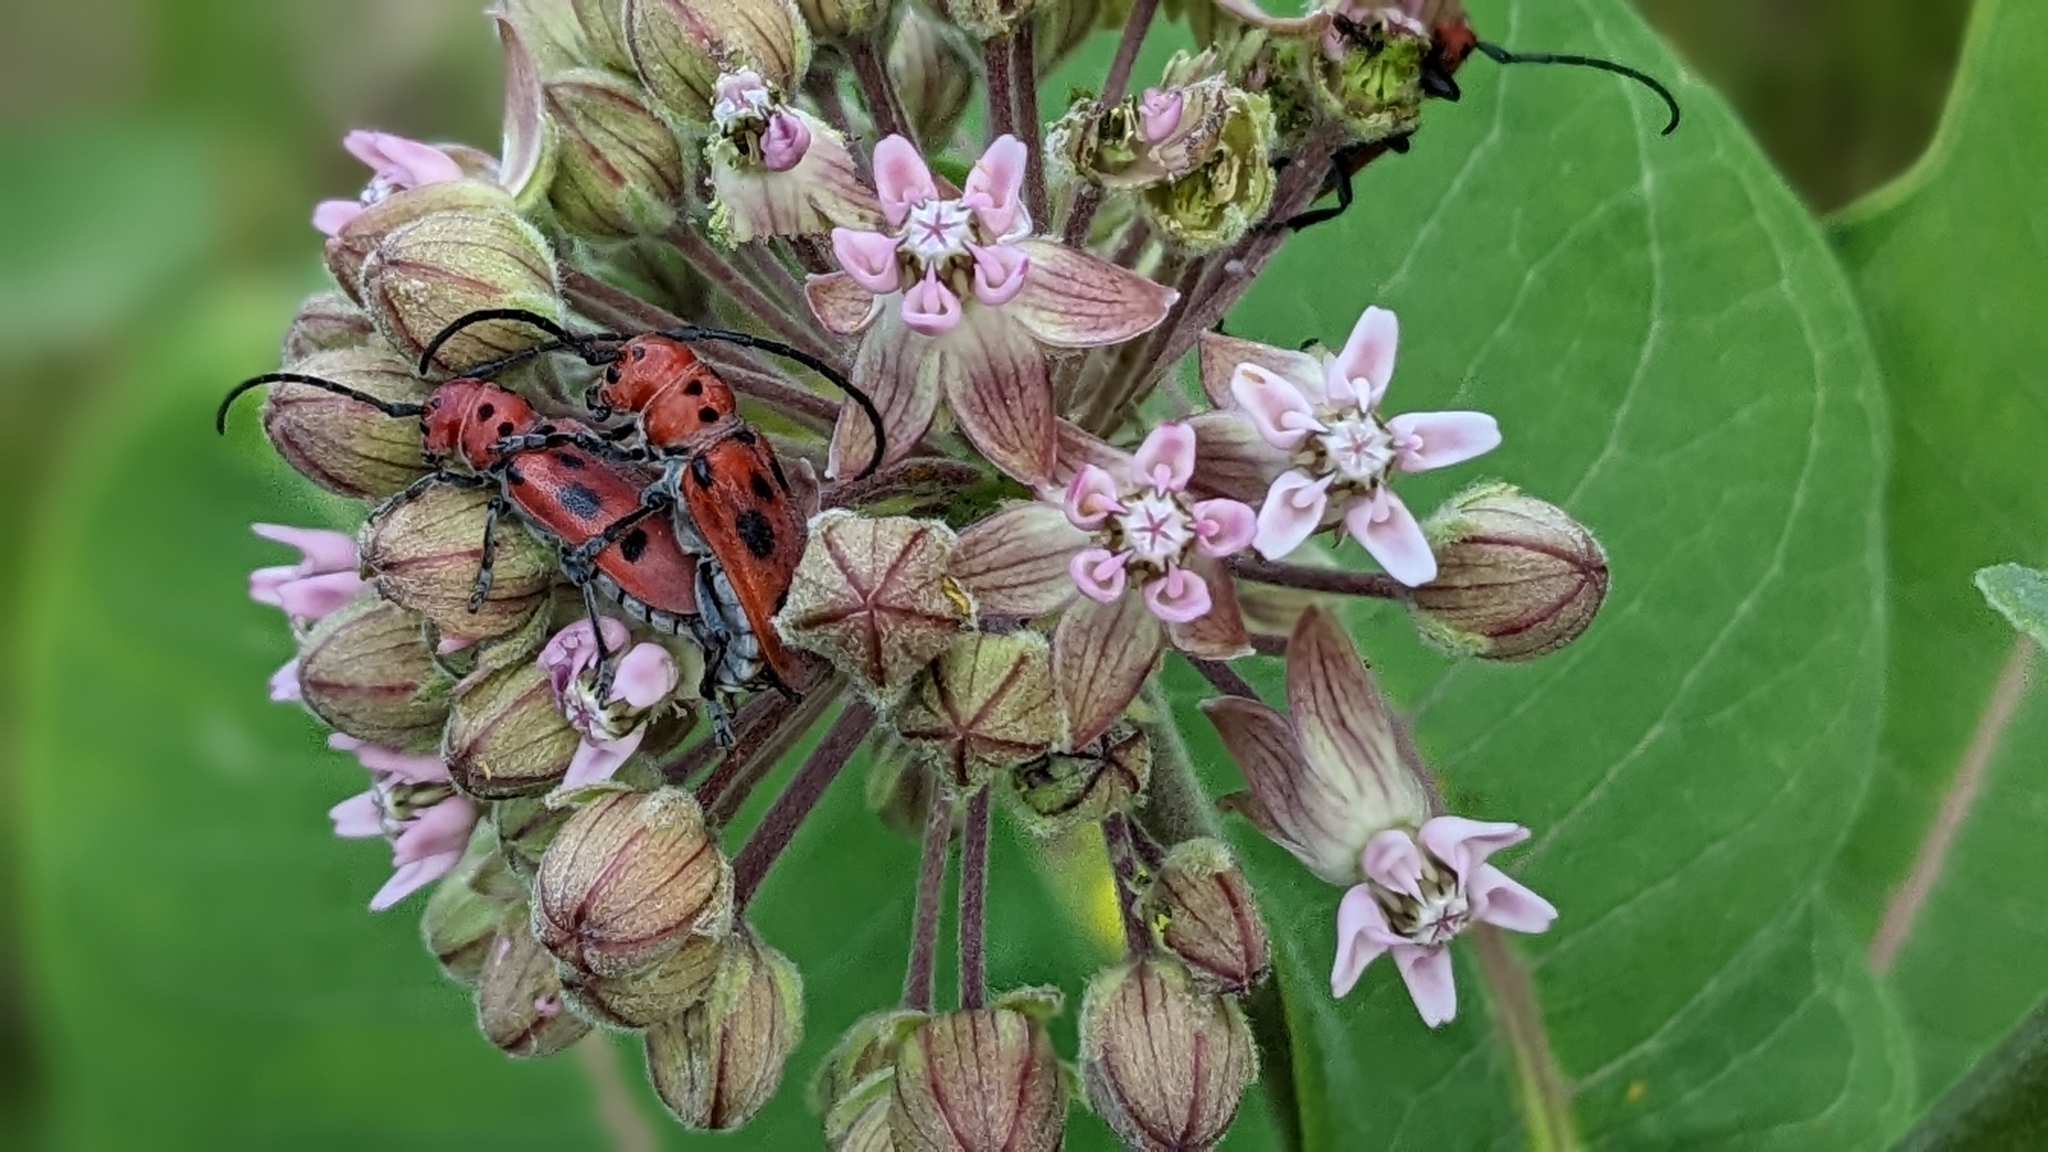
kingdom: Plantae
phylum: Tracheophyta
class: Magnoliopsida
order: Gentianales
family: Apocynaceae
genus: Asclepias
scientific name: Asclepias syriaca
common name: Common milkweed
